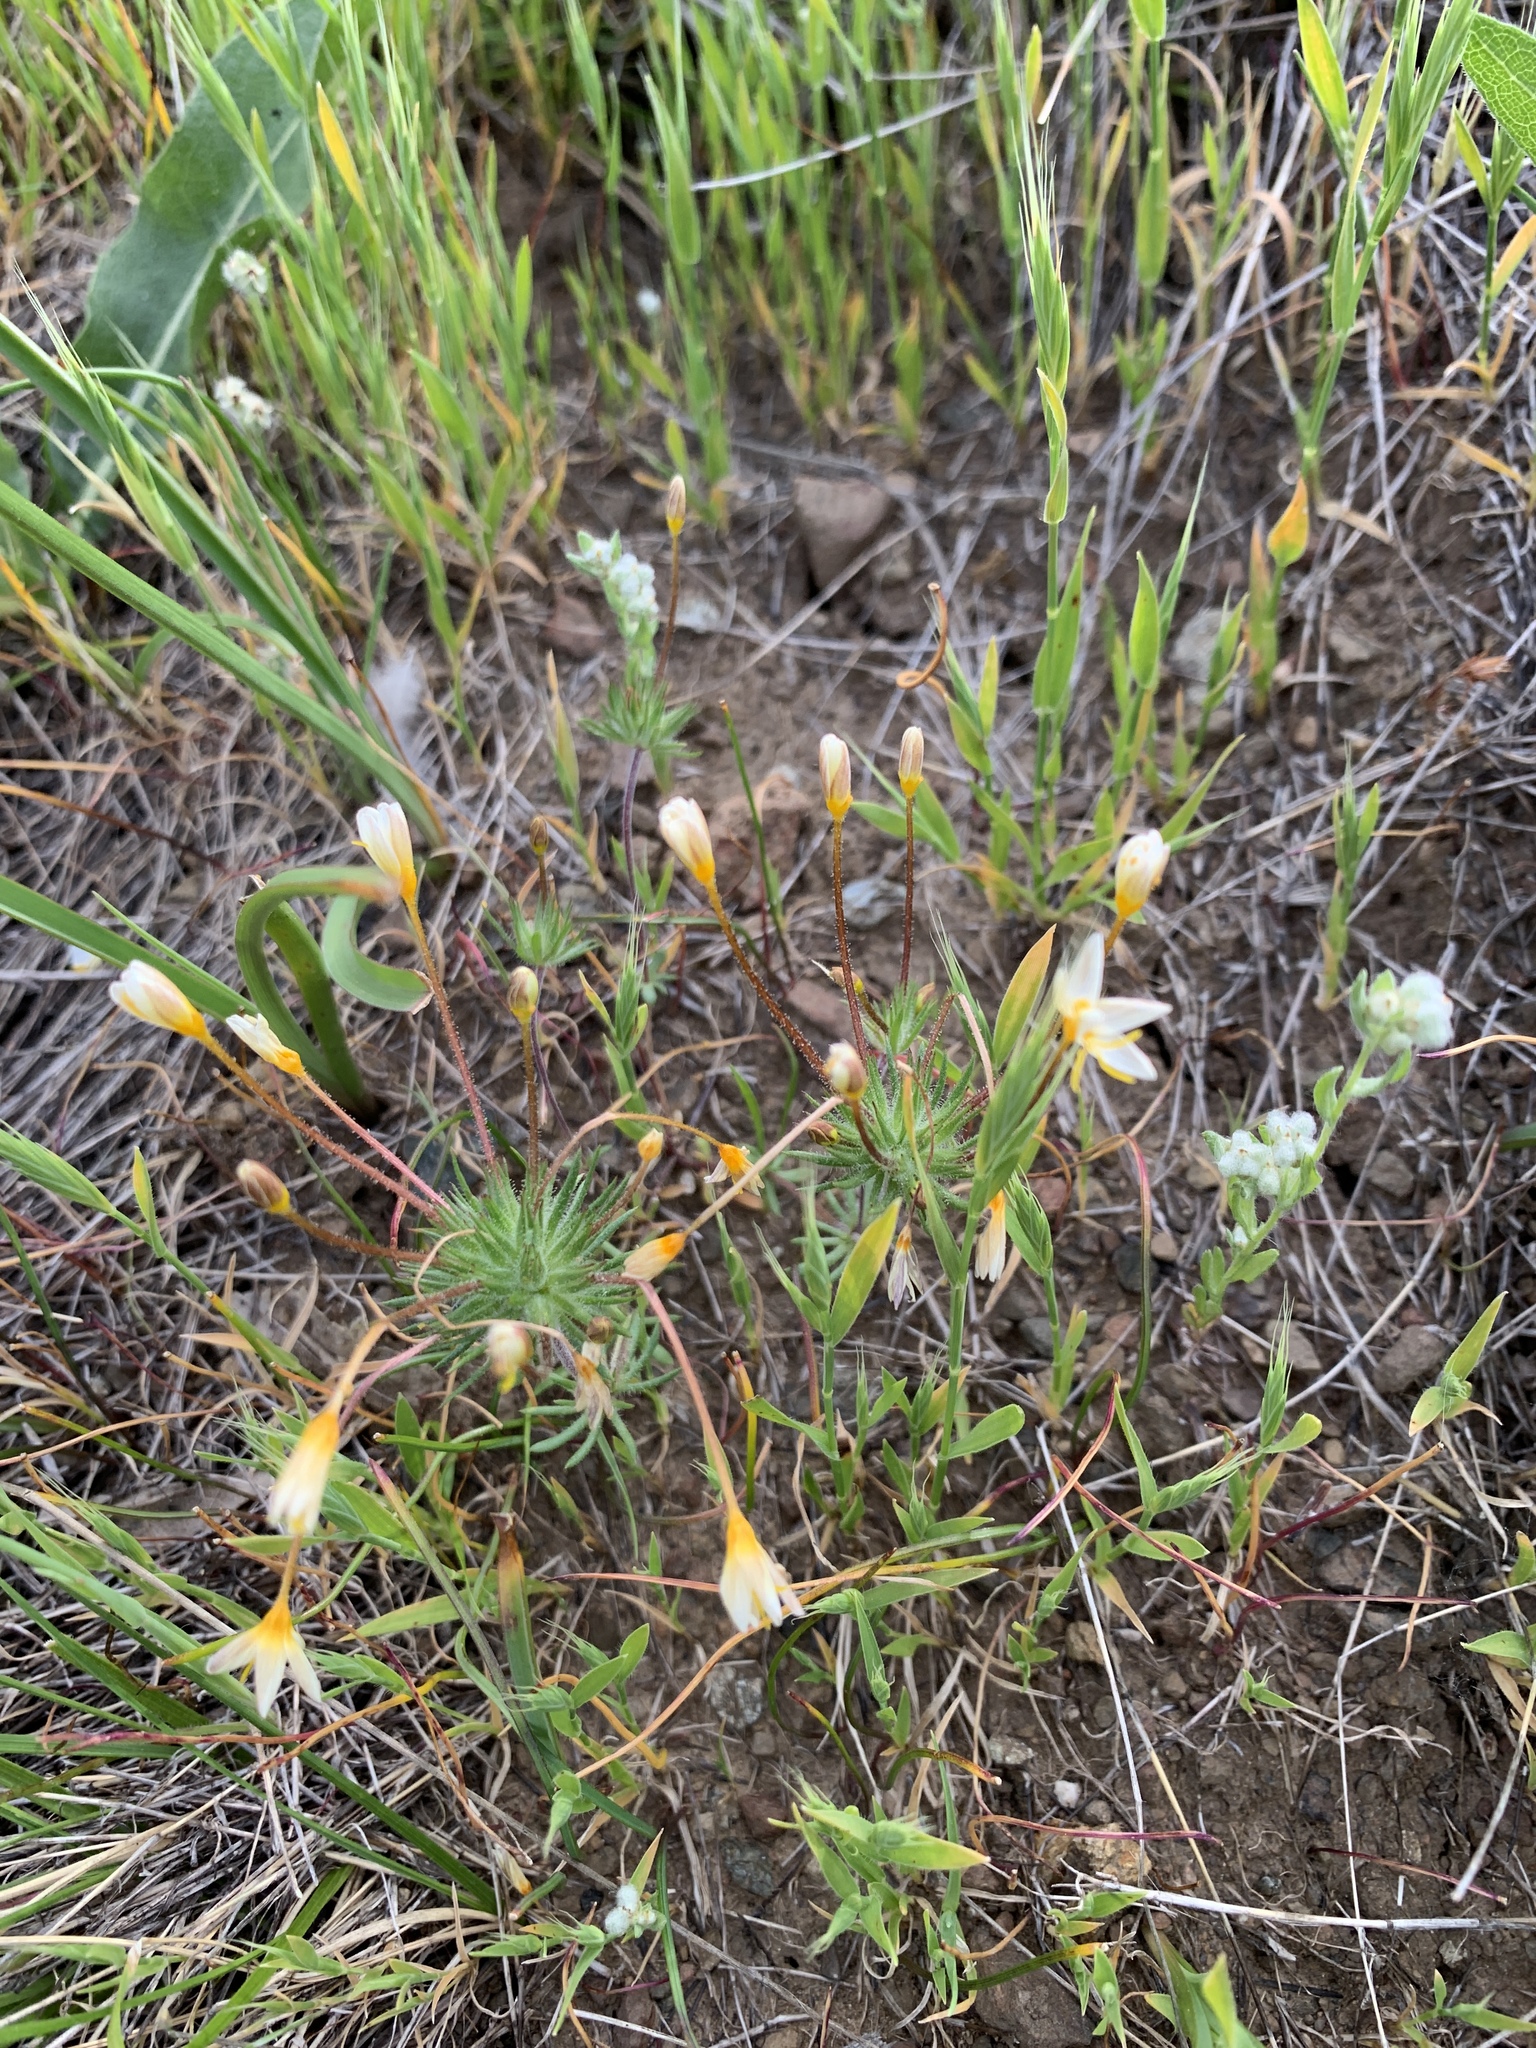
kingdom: Plantae
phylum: Tracheophyta
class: Magnoliopsida
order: Ericales
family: Polemoniaceae
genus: Leptosiphon
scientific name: Leptosiphon parviflorus
